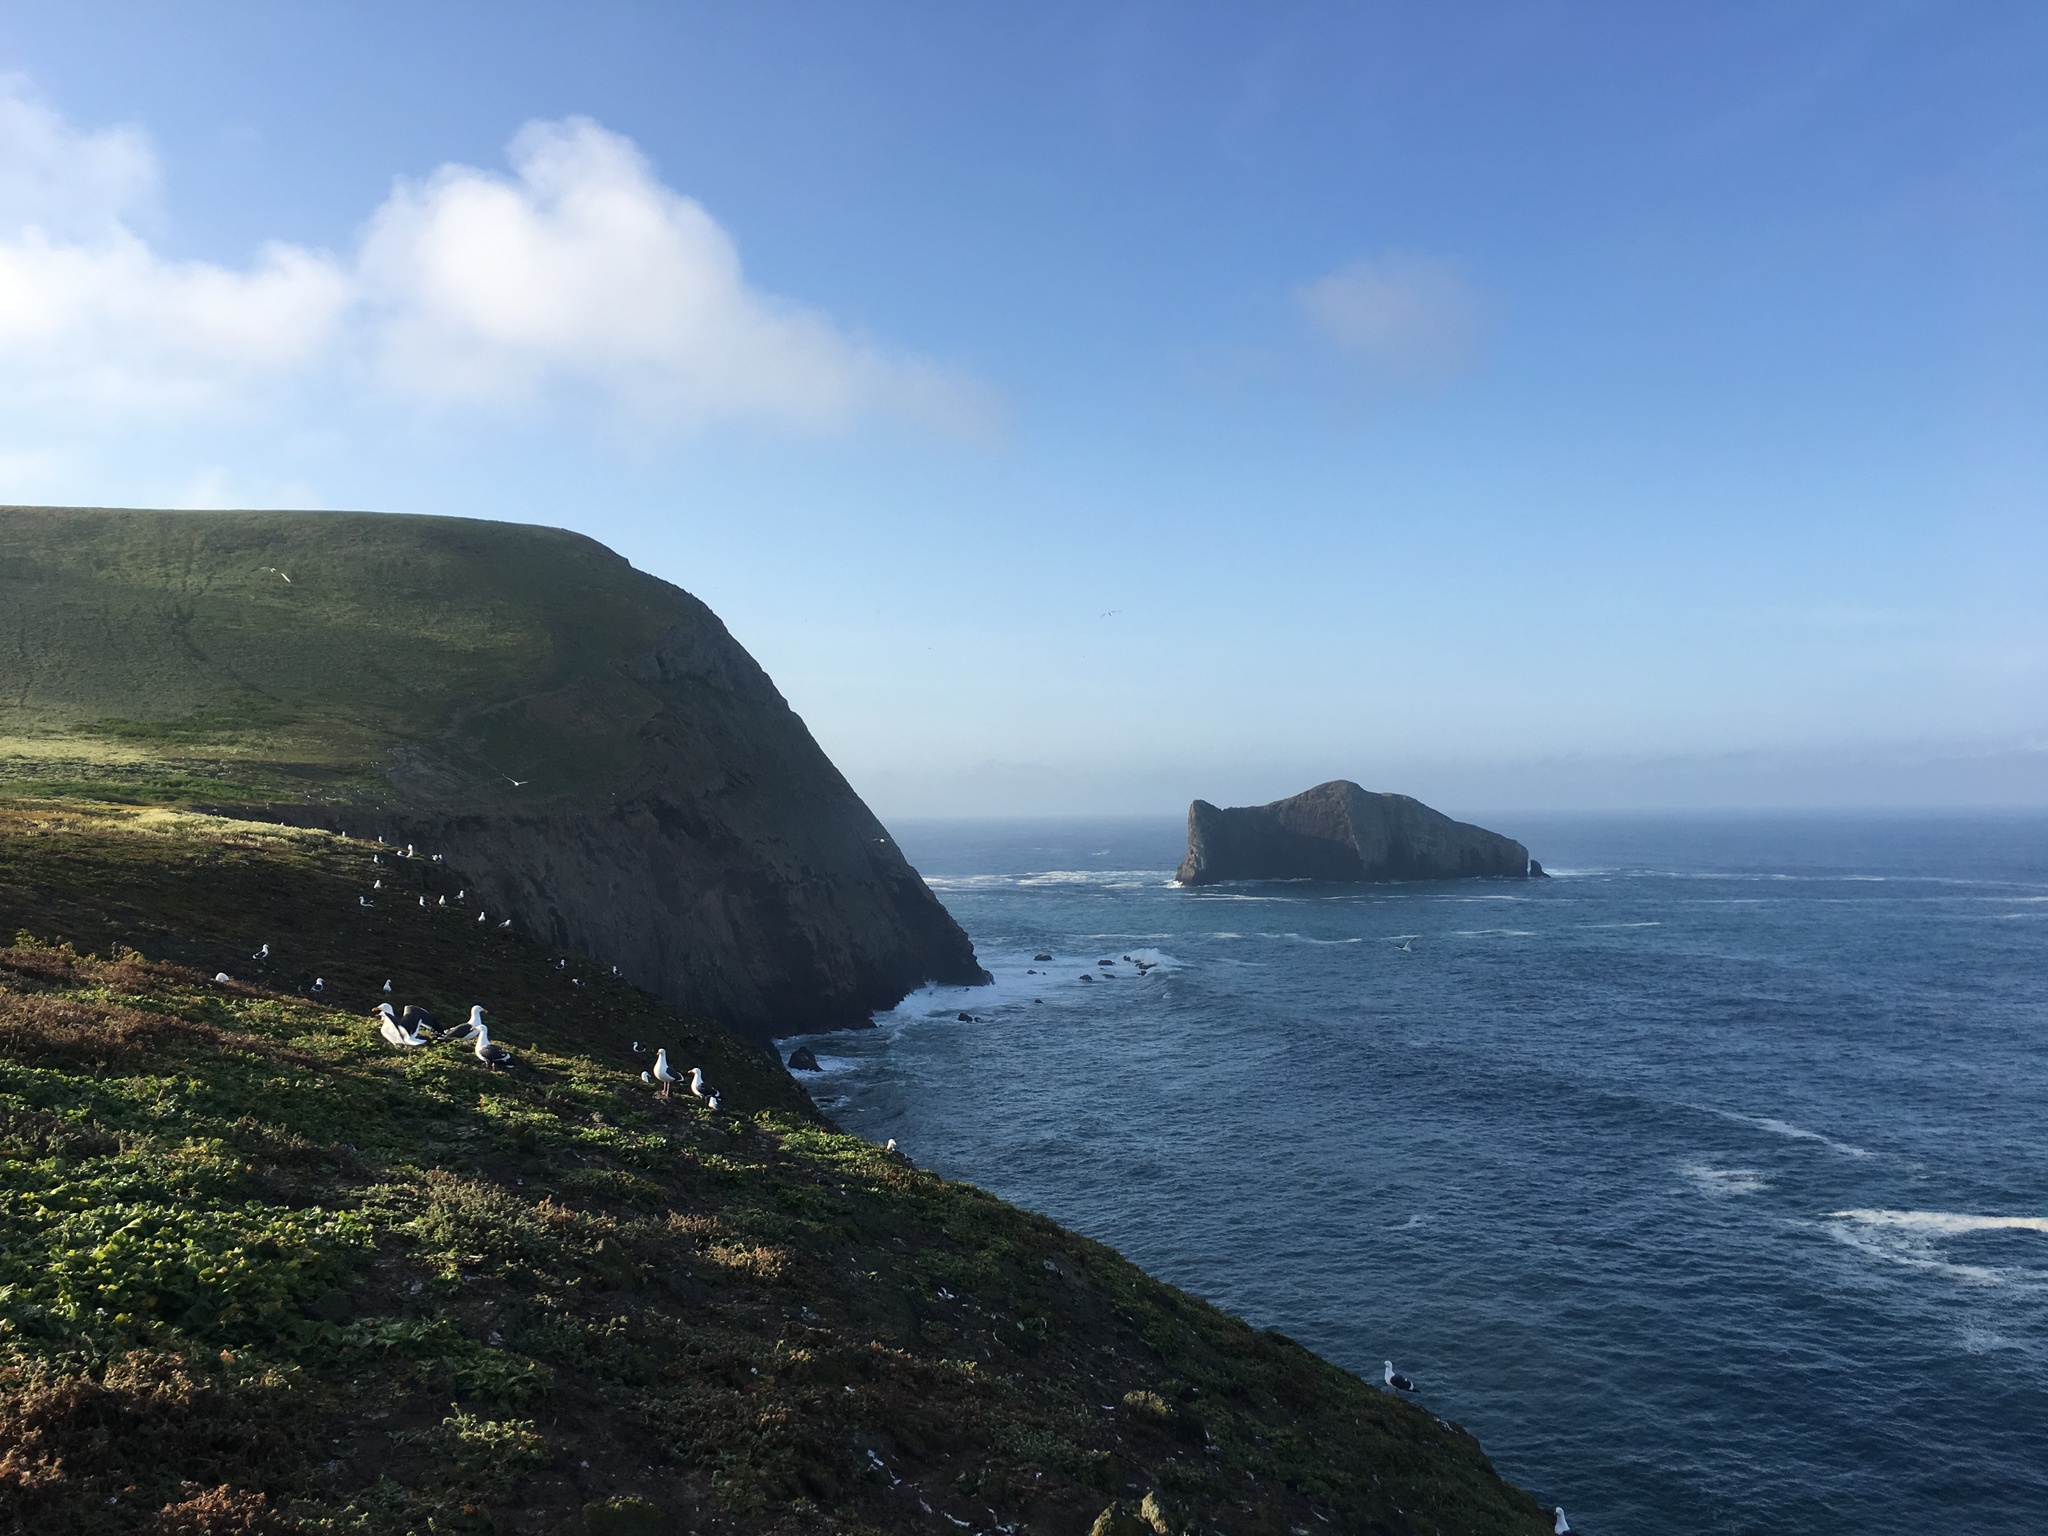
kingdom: Animalia
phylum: Chordata
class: Aves
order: Charadriiformes
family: Laridae
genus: Larus
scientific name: Larus occidentalis
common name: Western gull
